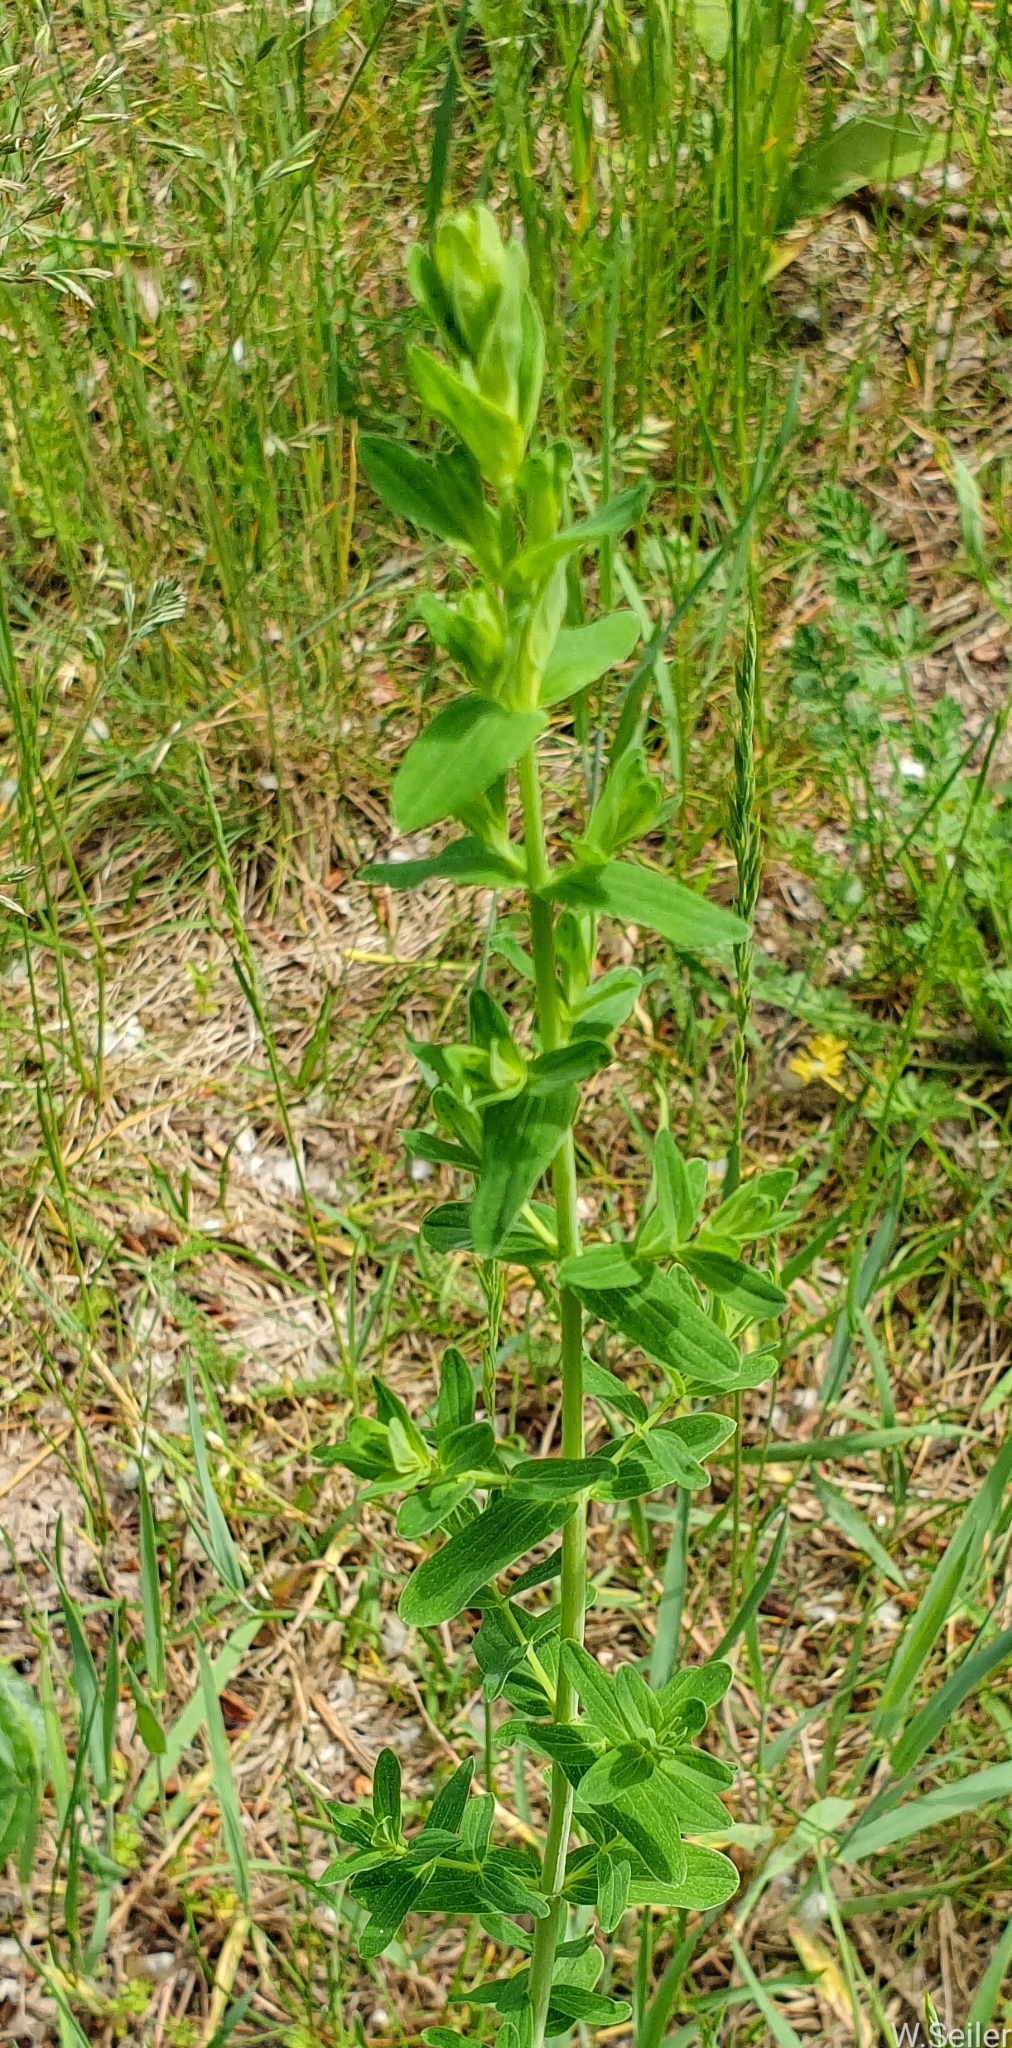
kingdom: Plantae
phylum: Tracheophyta
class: Magnoliopsida
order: Malpighiales
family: Hypericaceae
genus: Hypericum
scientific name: Hypericum
